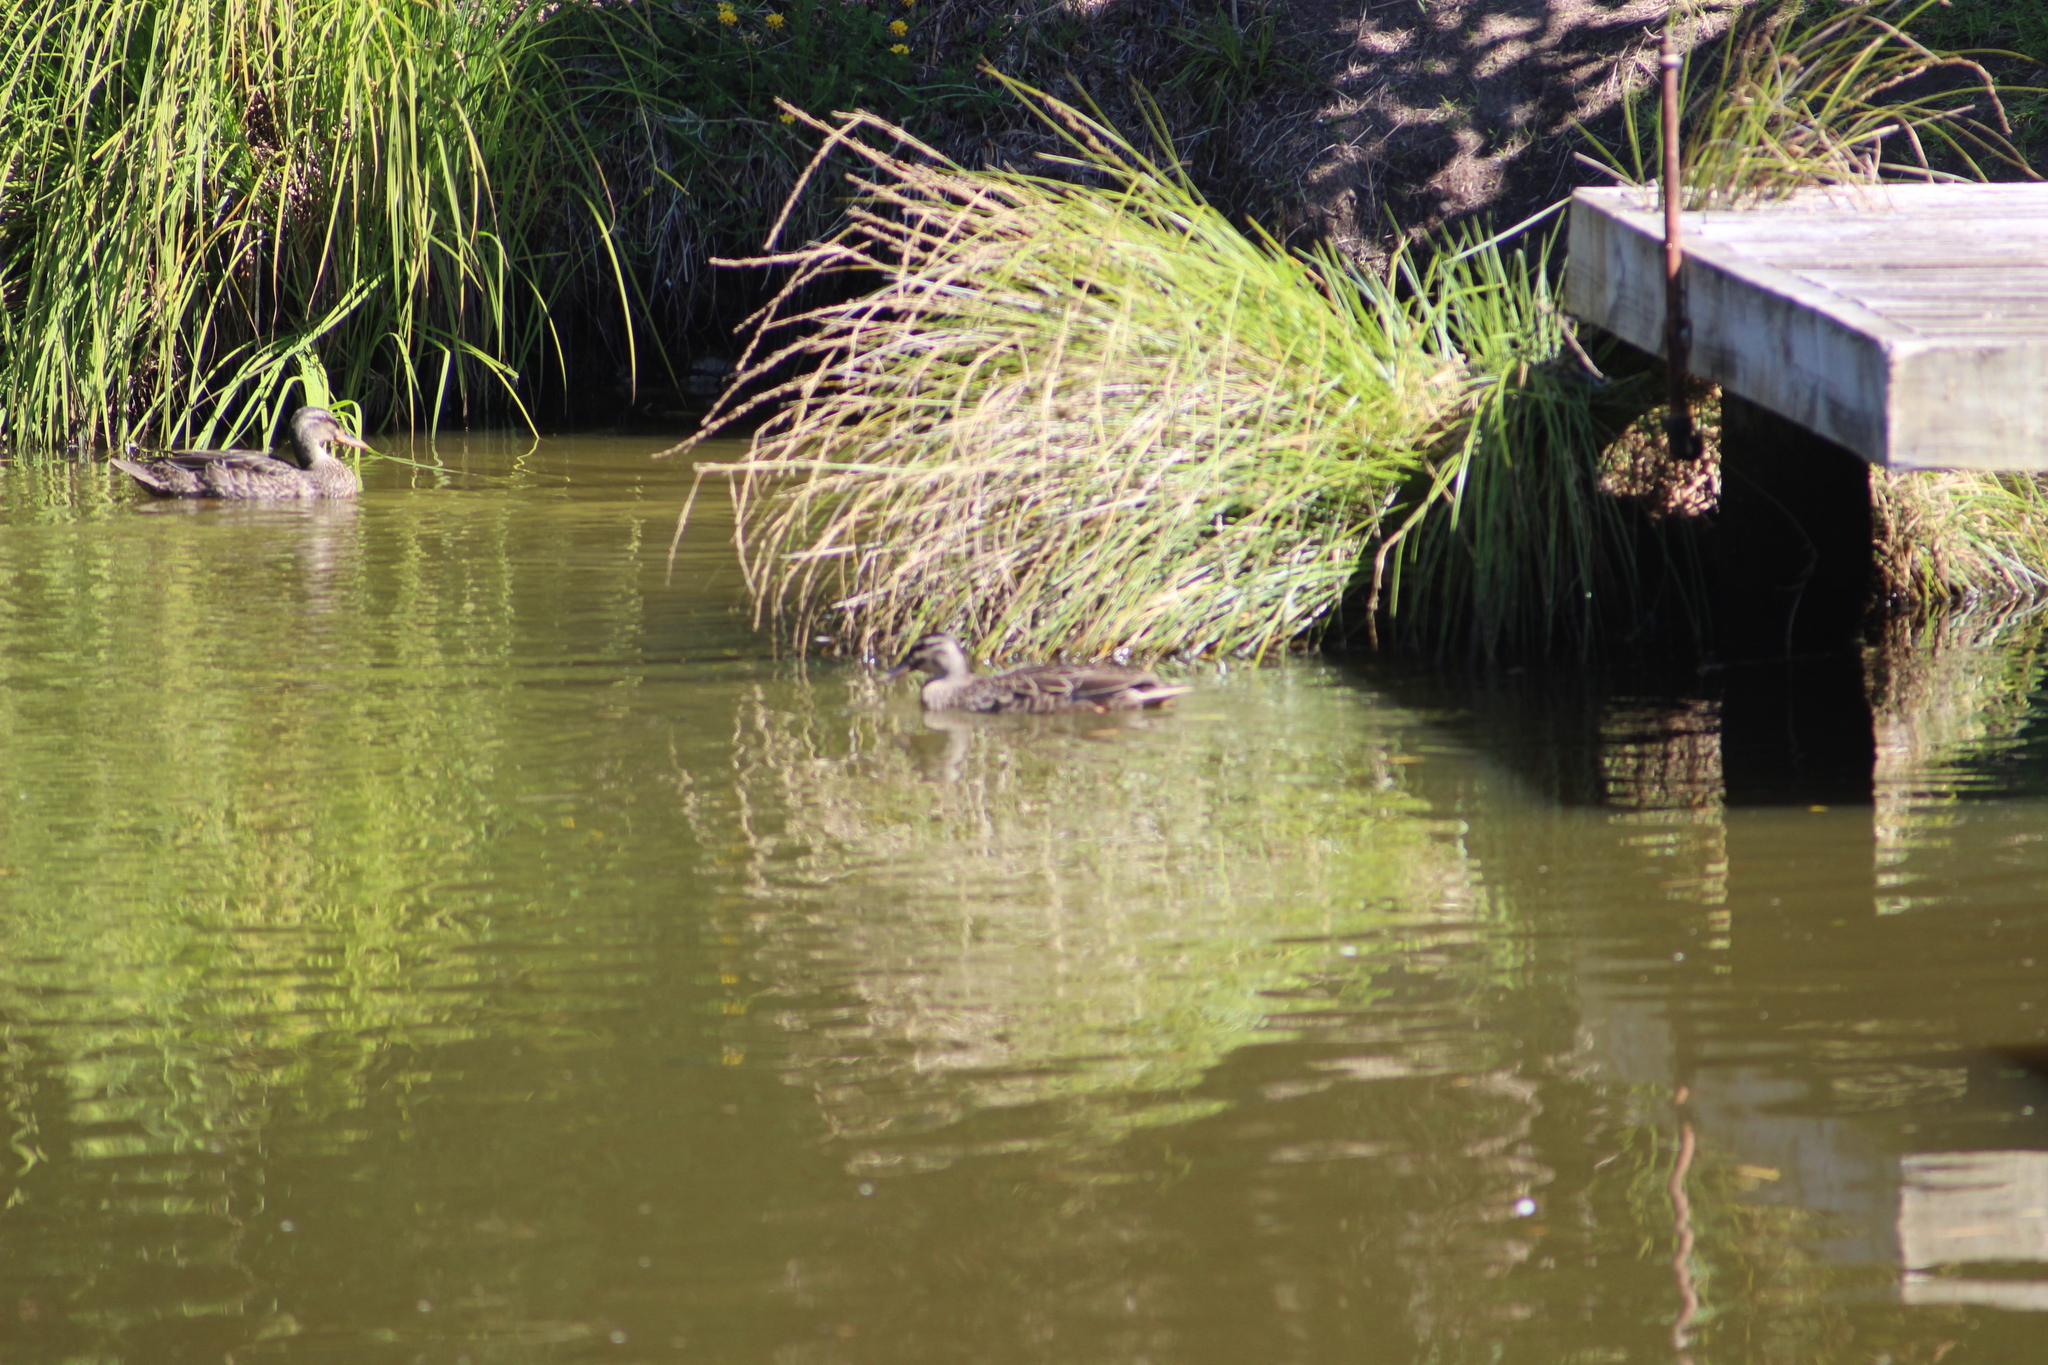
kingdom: Animalia
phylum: Chordata
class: Aves
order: Anseriformes
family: Anatidae
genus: Anas
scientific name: Anas
